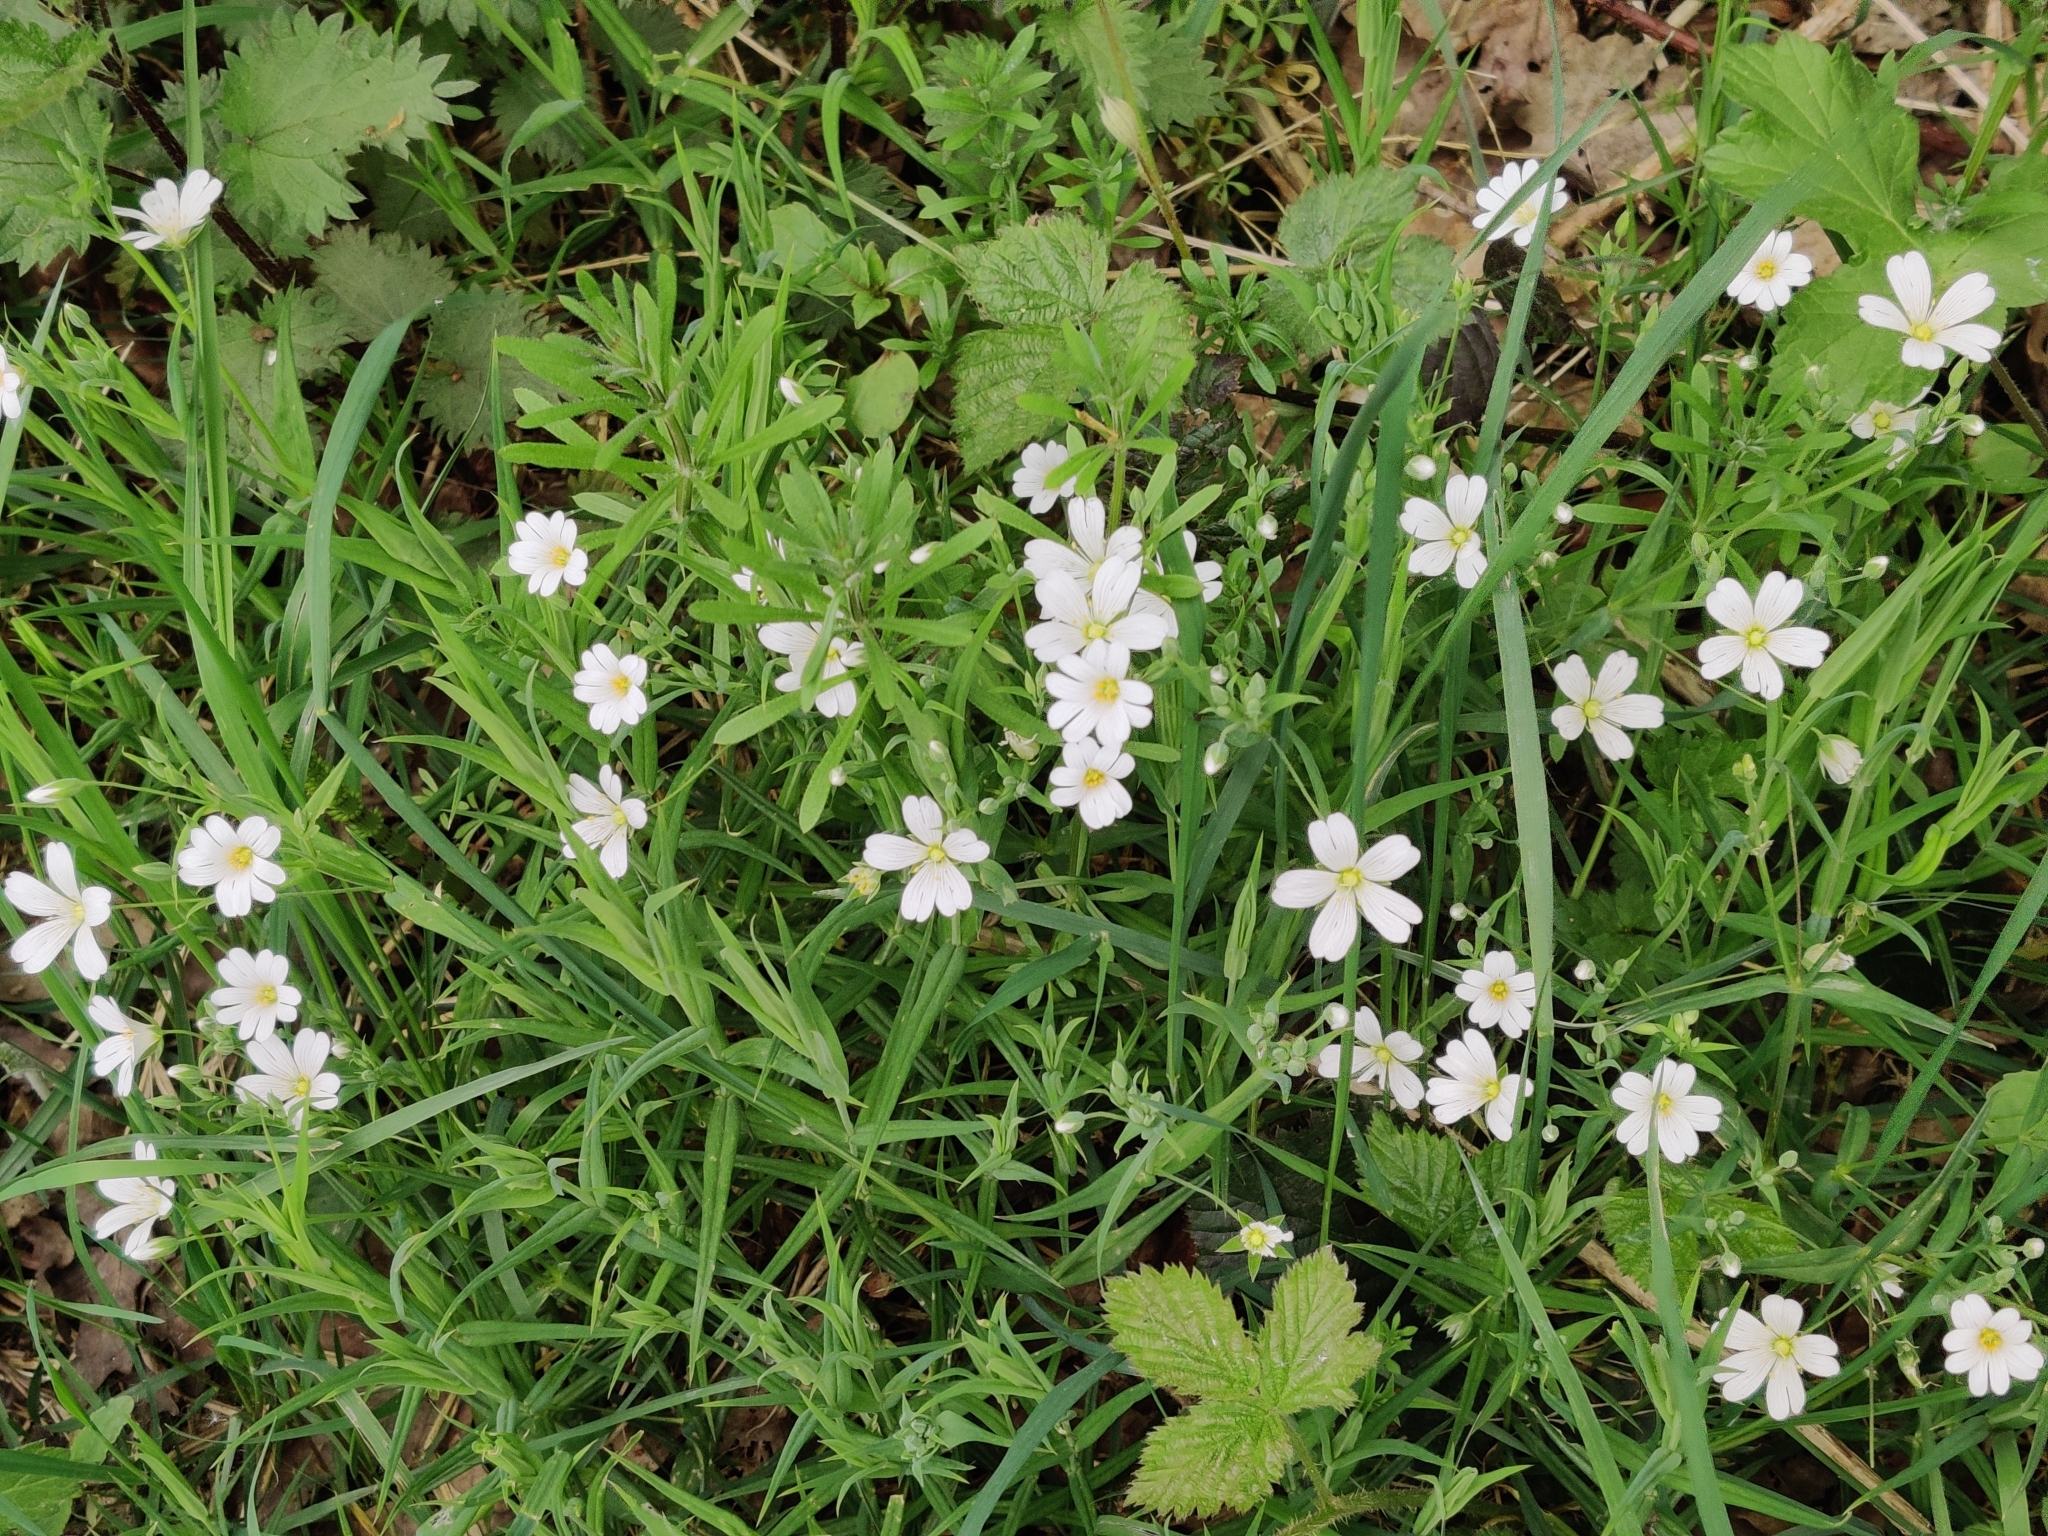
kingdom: Plantae
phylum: Tracheophyta
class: Magnoliopsida
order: Caryophyllales
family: Caryophyllaceae
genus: Rabelera
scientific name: Rabelera holostea
